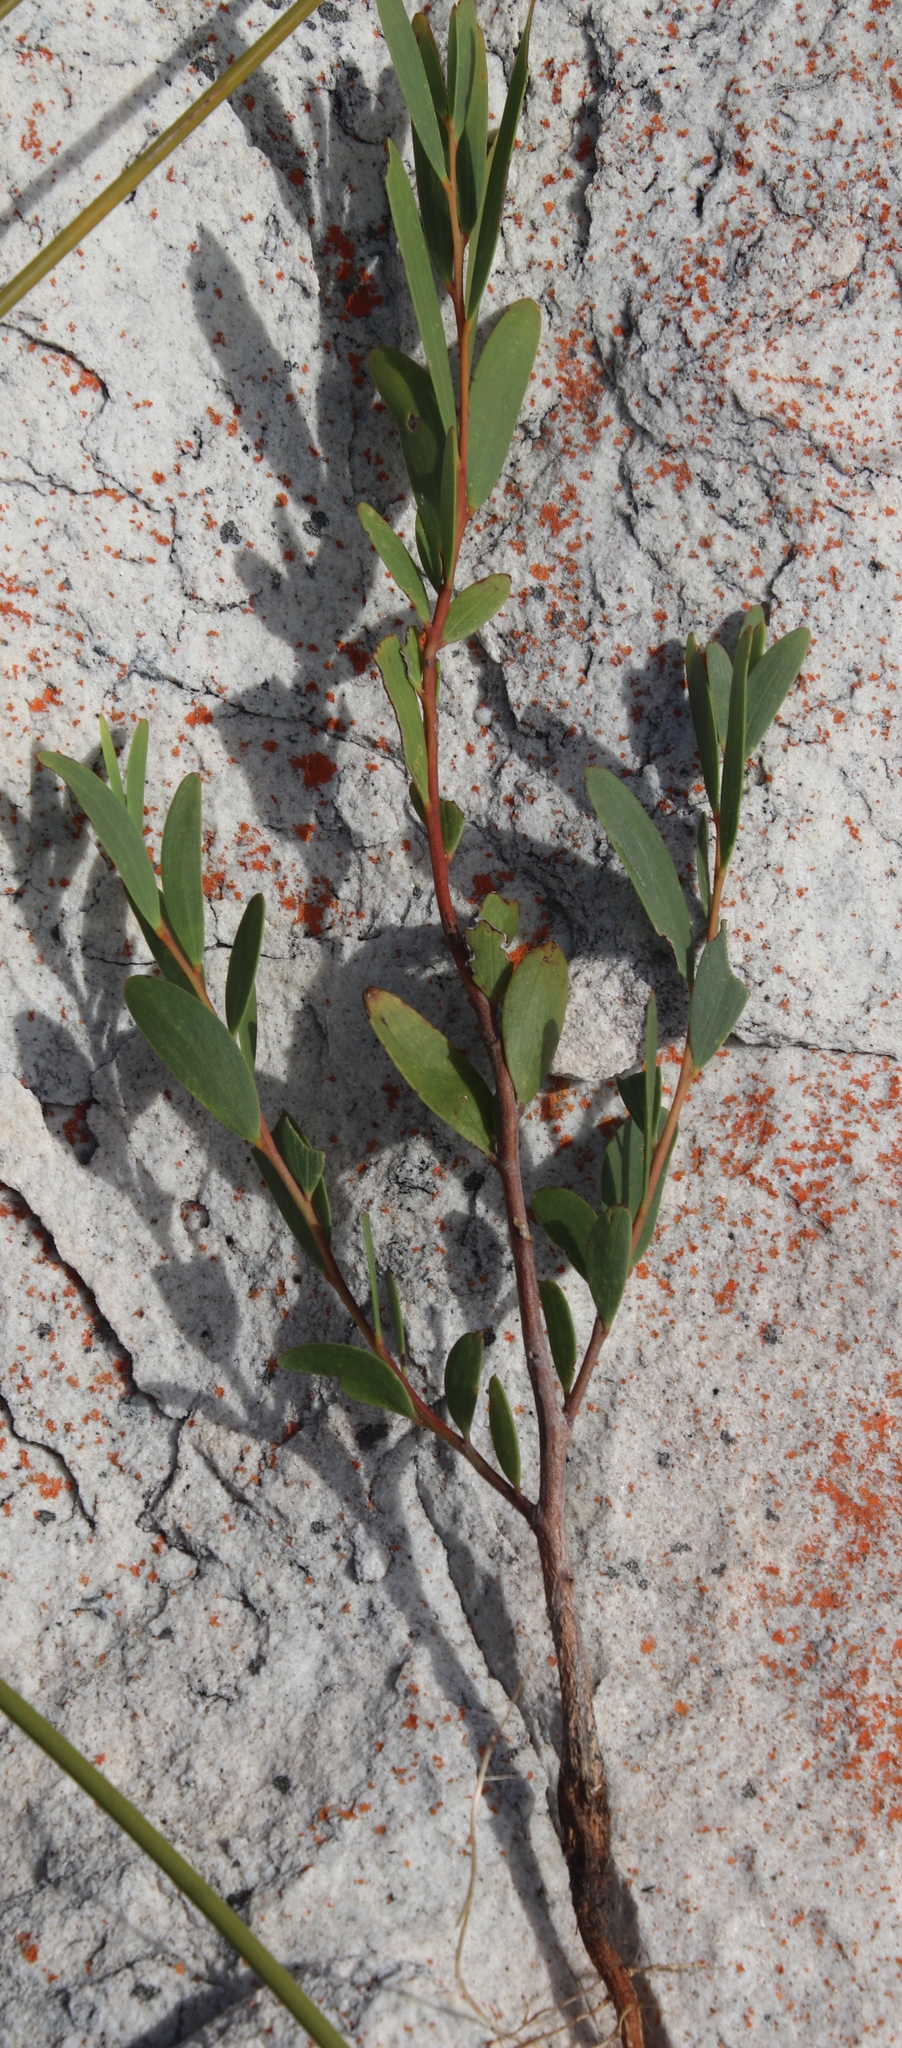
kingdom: Plantae
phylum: Tracheophyta
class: Magnoliopsida
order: Fabales
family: Fabaceae
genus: Acacia
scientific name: Acacia cyclops
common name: Coastal wattle
